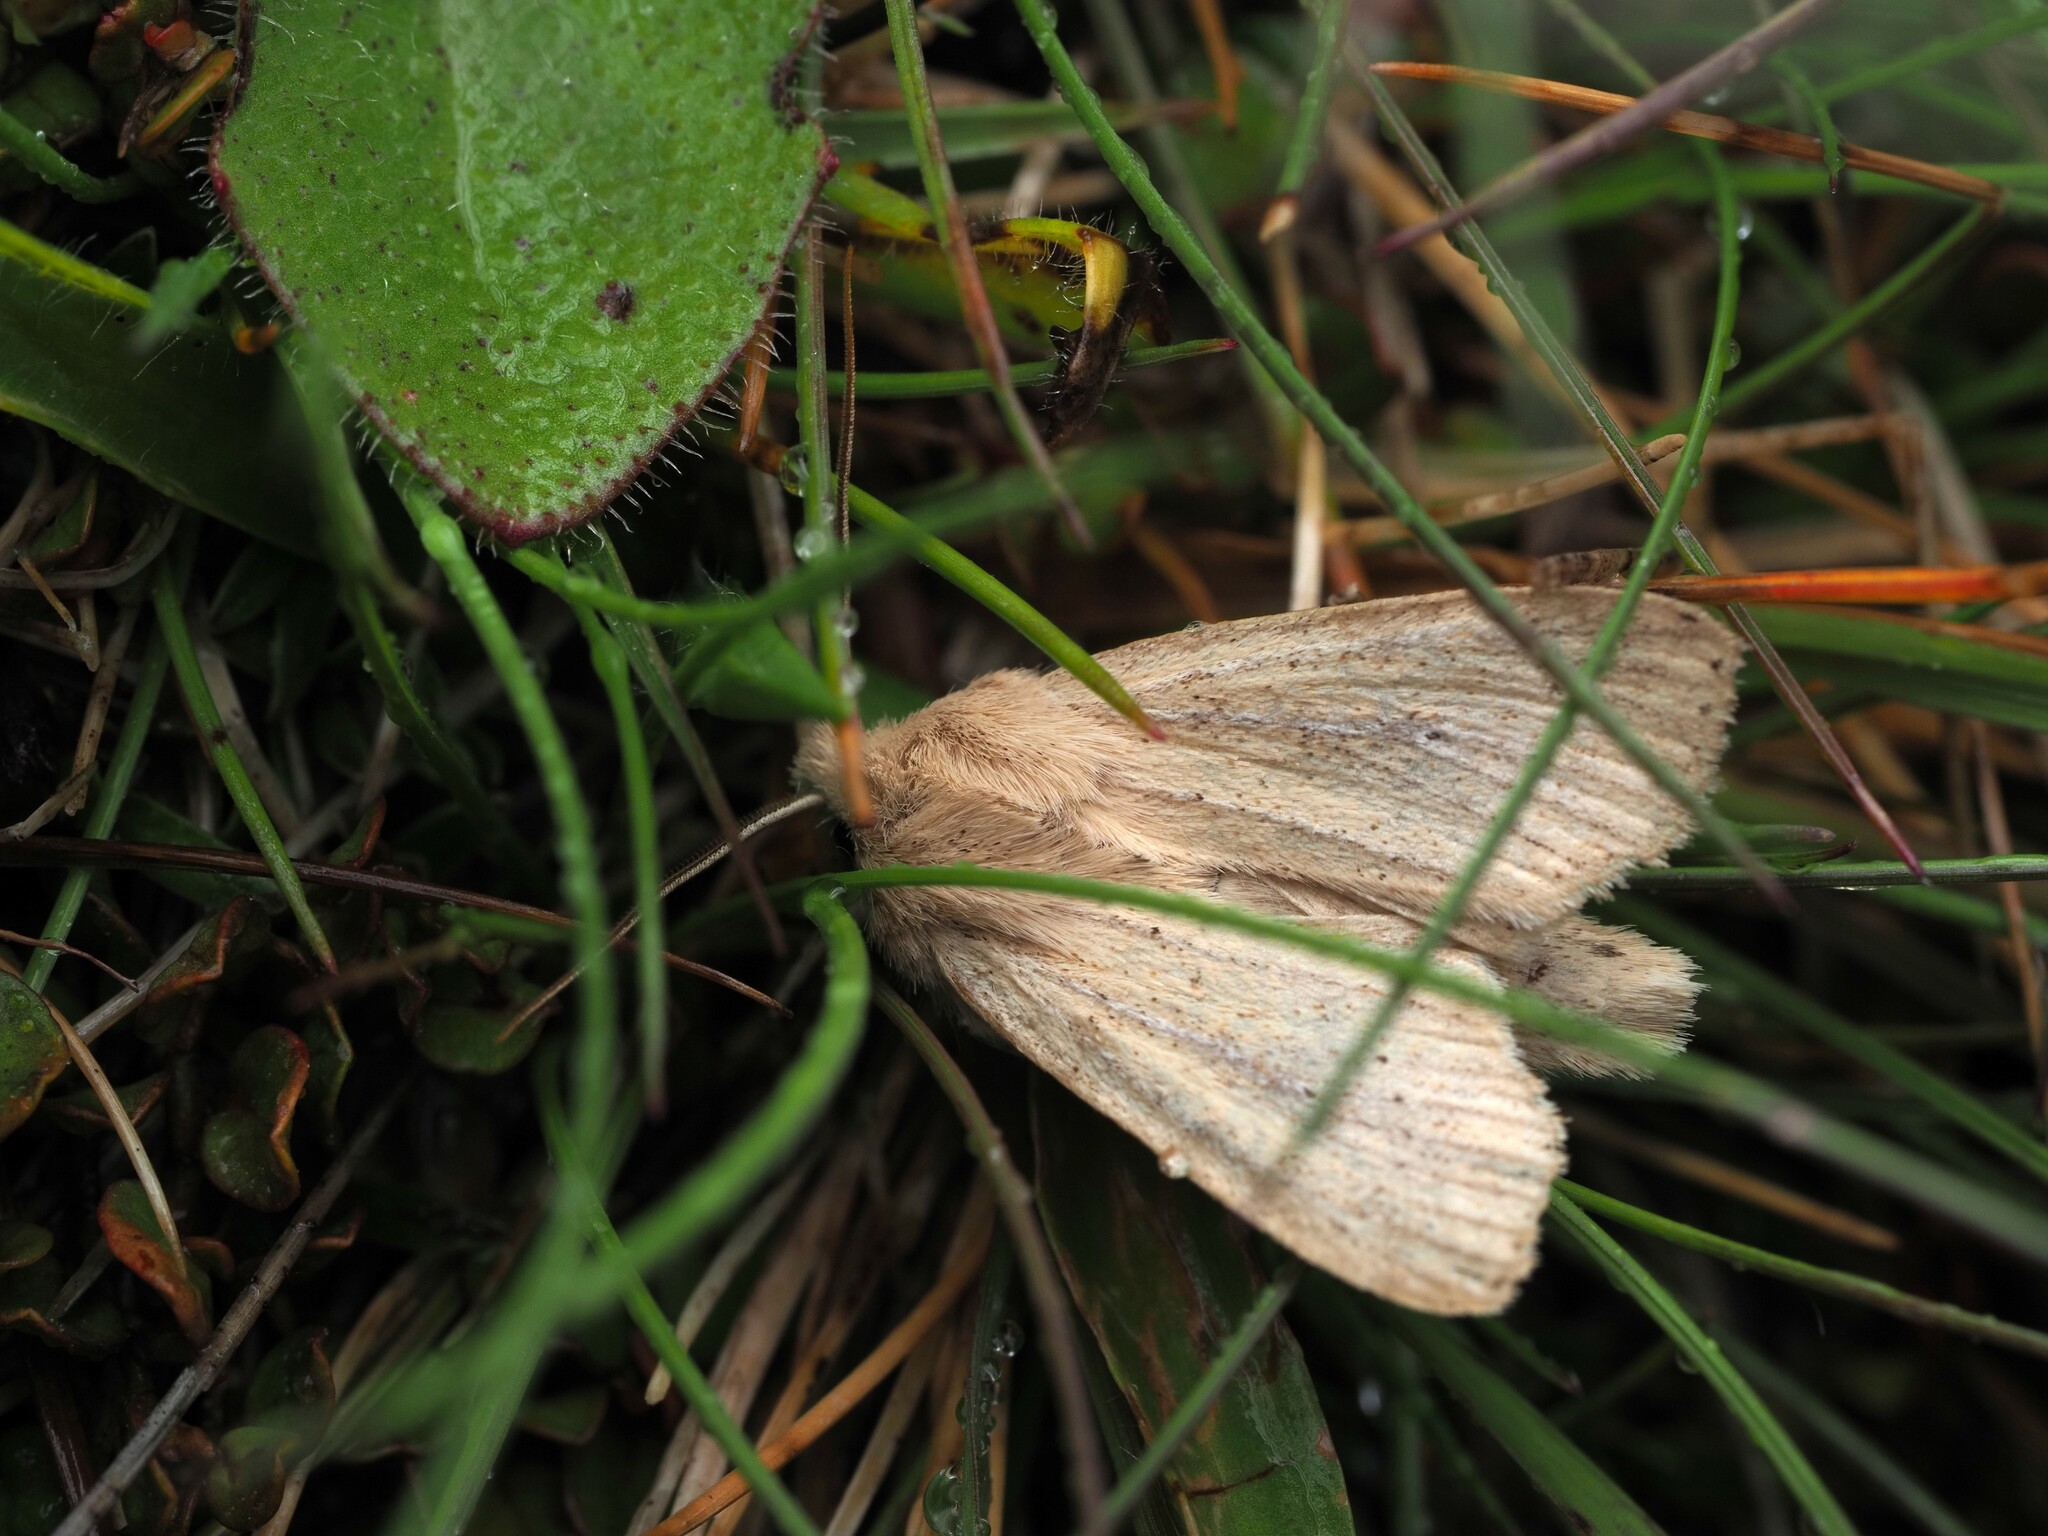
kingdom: Animalia
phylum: Arthropoda
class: Insecta
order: Lepidoptera
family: Noctuidae
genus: Ichneutica
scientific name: Ichneutica
